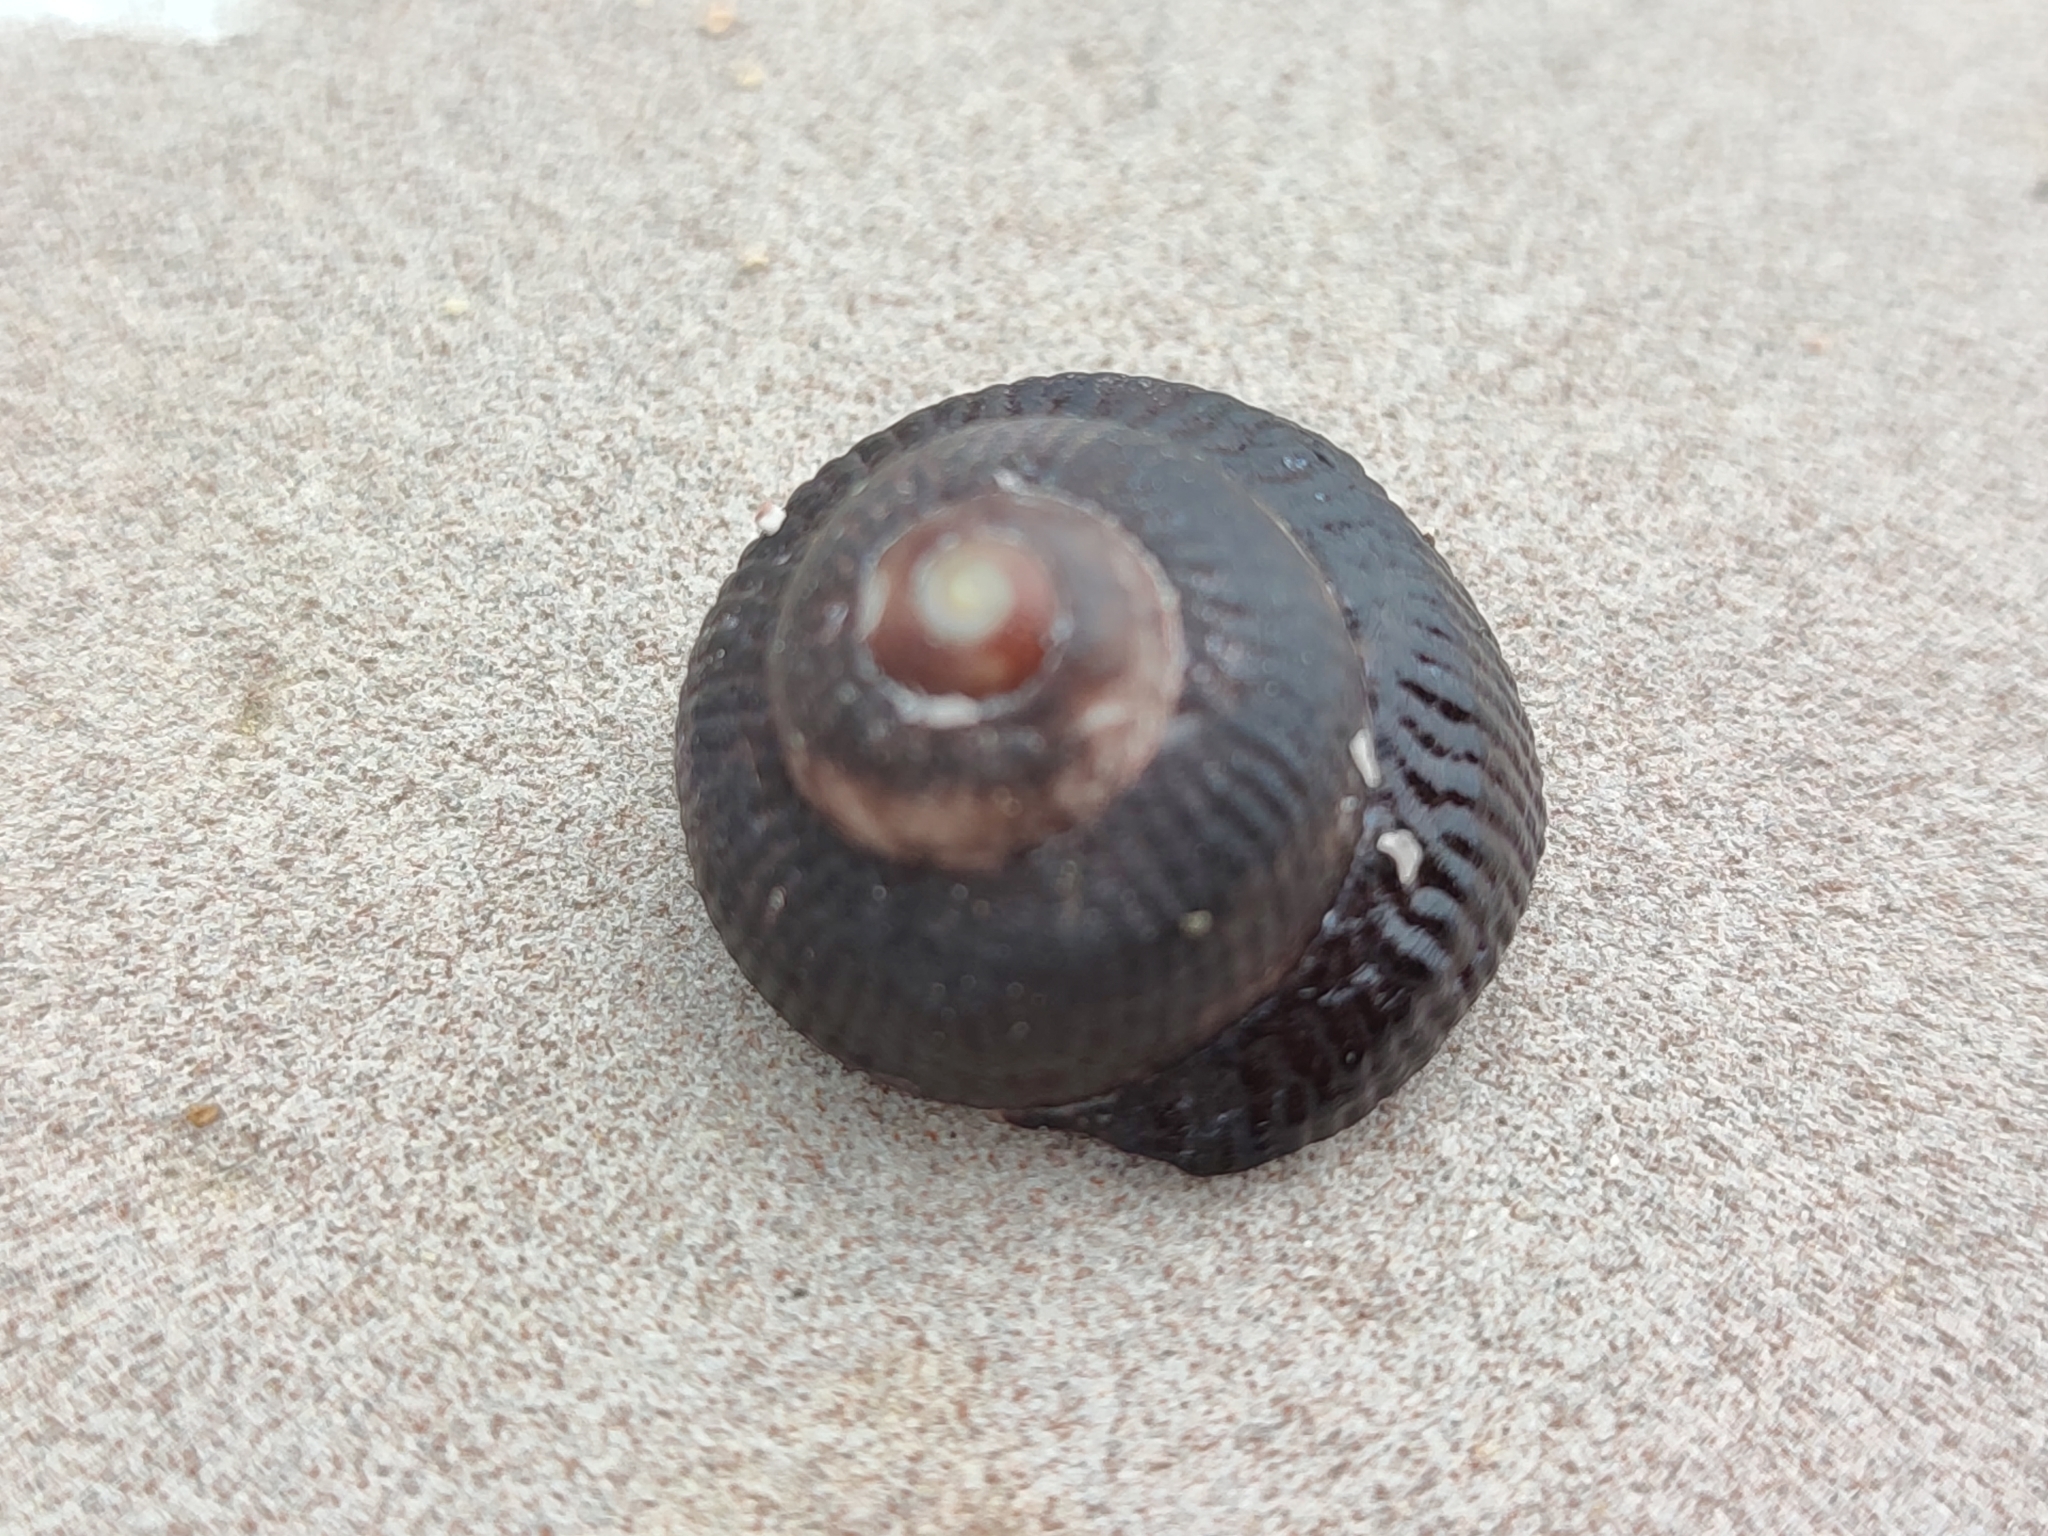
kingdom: Animalia
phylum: Mollusca
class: Gastropoda
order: Trochida
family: Tegulidae
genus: Tegula
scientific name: Tegula nigerrima
